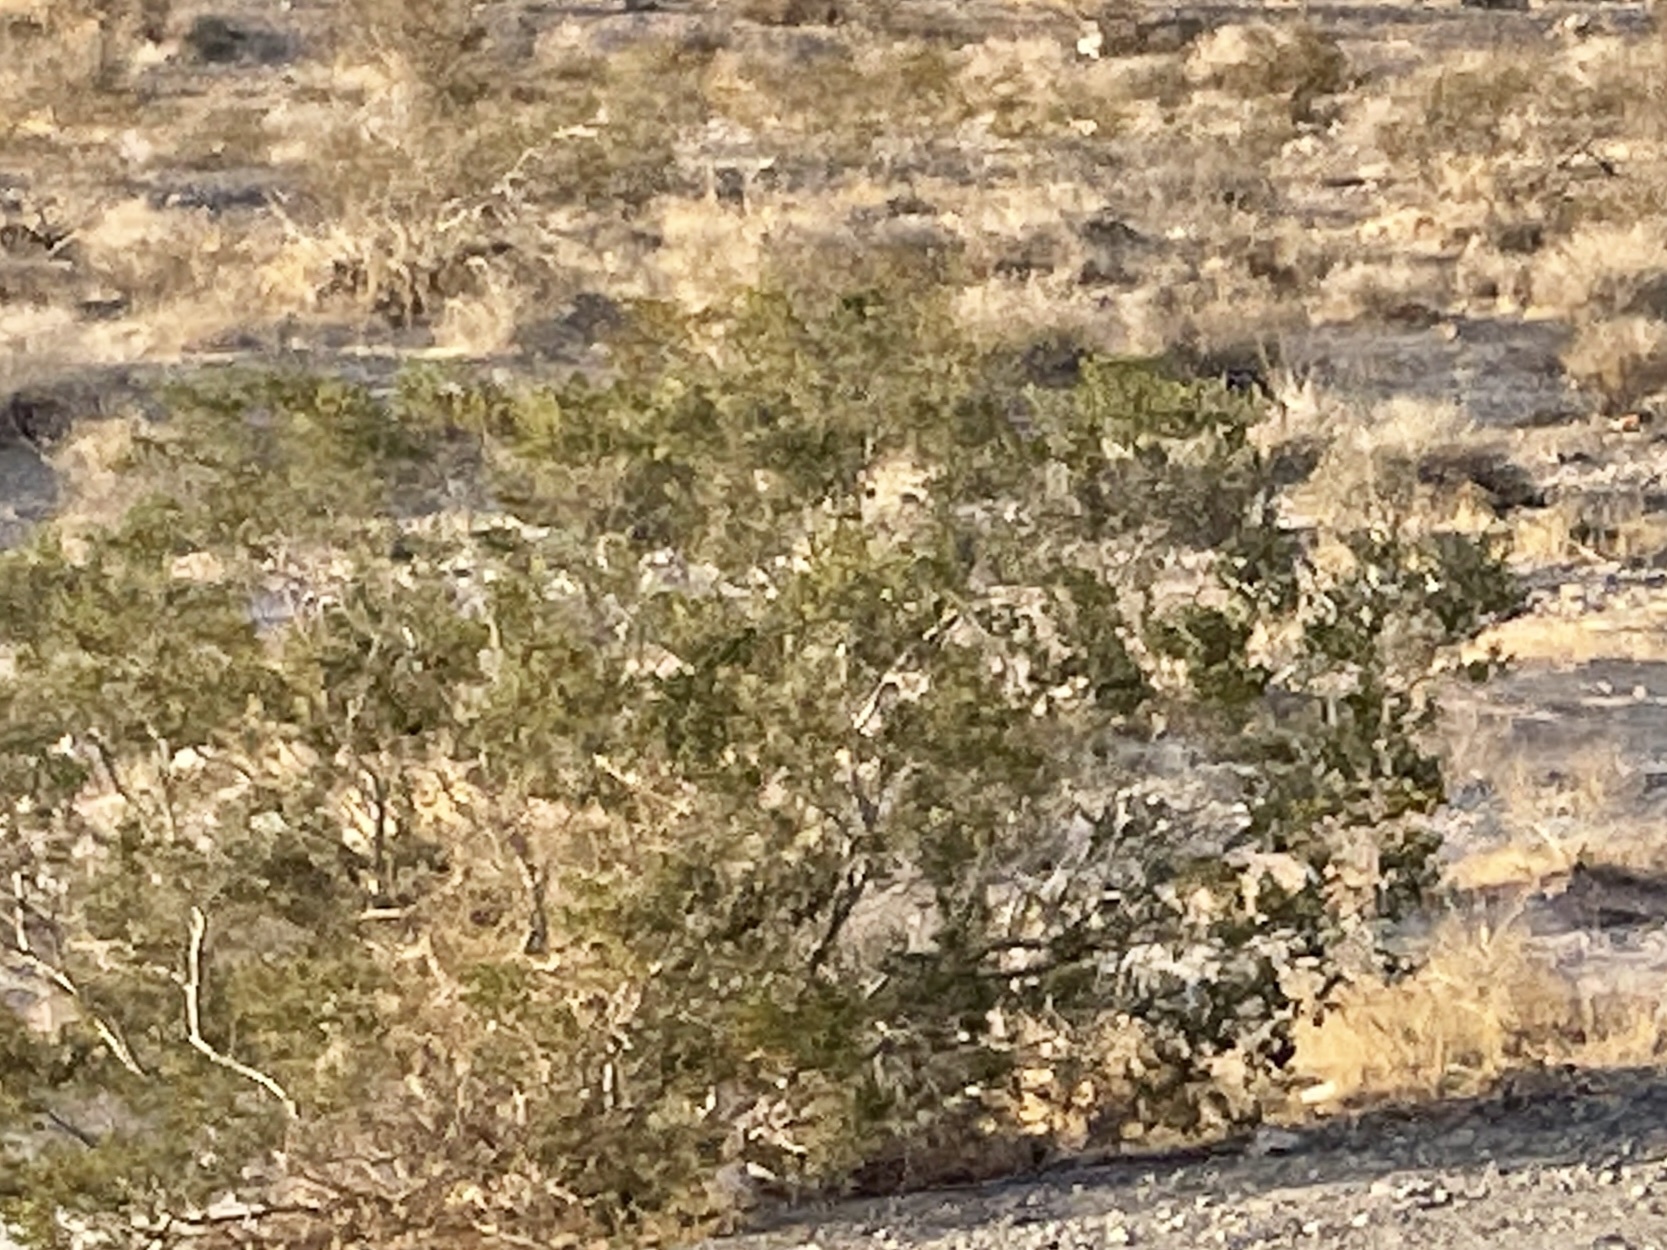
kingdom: Plantae
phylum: Tracheophyta
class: Magnoliopsida
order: Zygophyllales
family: Zygophyllaceae
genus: Larrea
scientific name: Larrea tridentata
